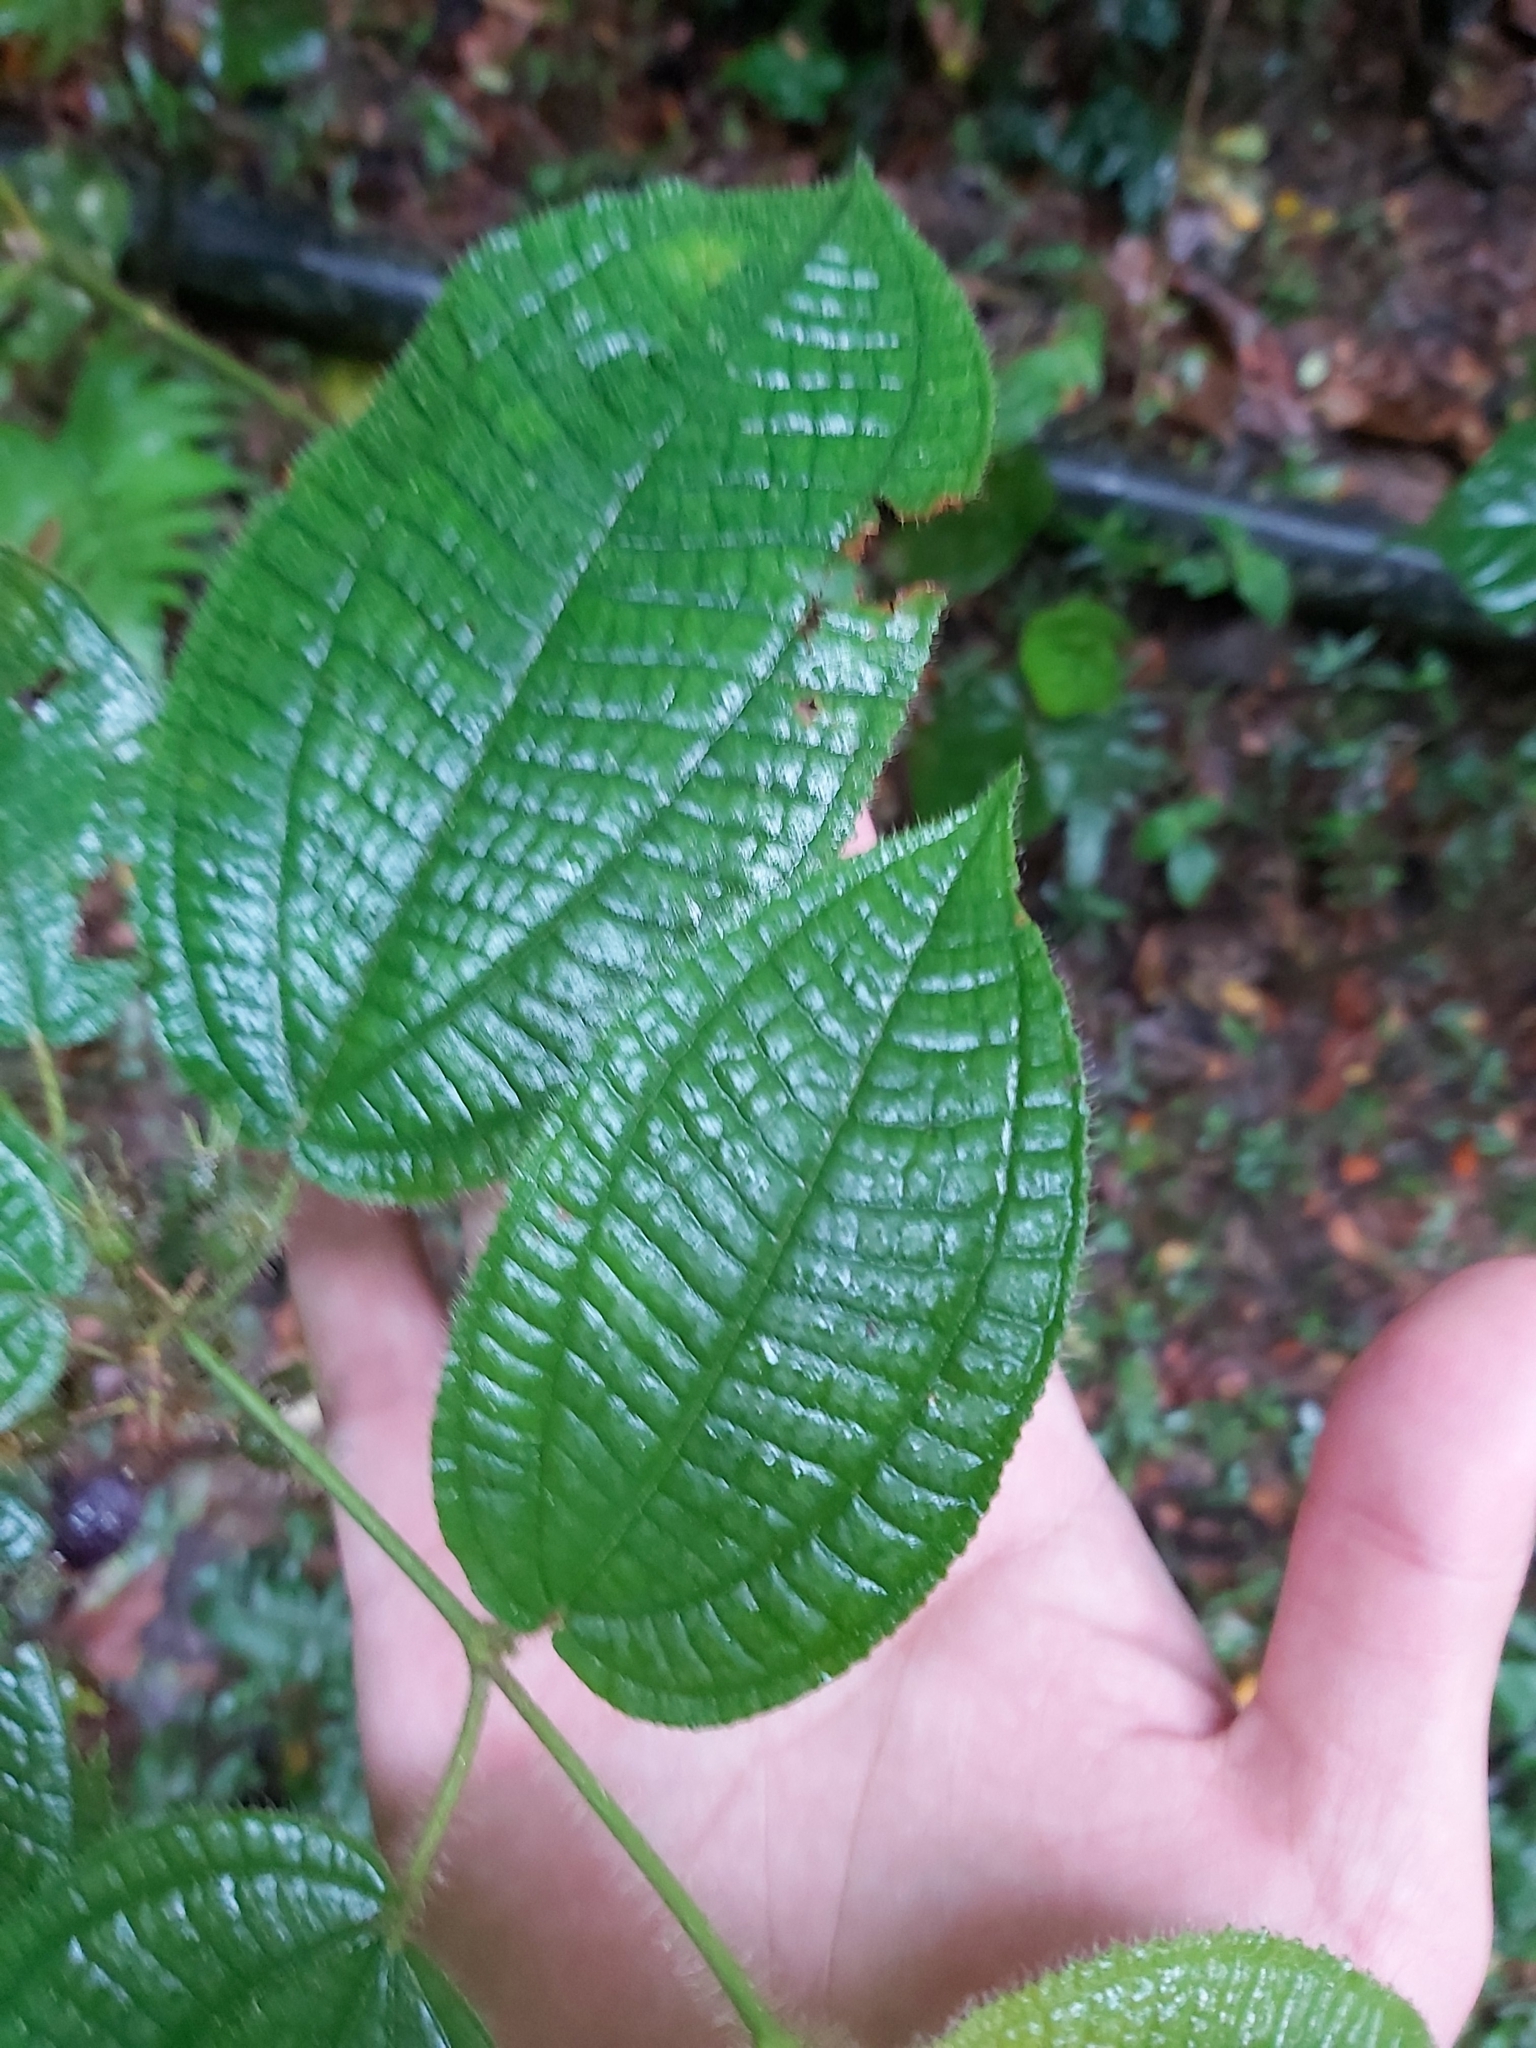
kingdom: Plantae
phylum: Tracheophyta
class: Magnoliopsida
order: Myrtales
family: Melastomataceae
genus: Miconia
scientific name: Miconia crenata
